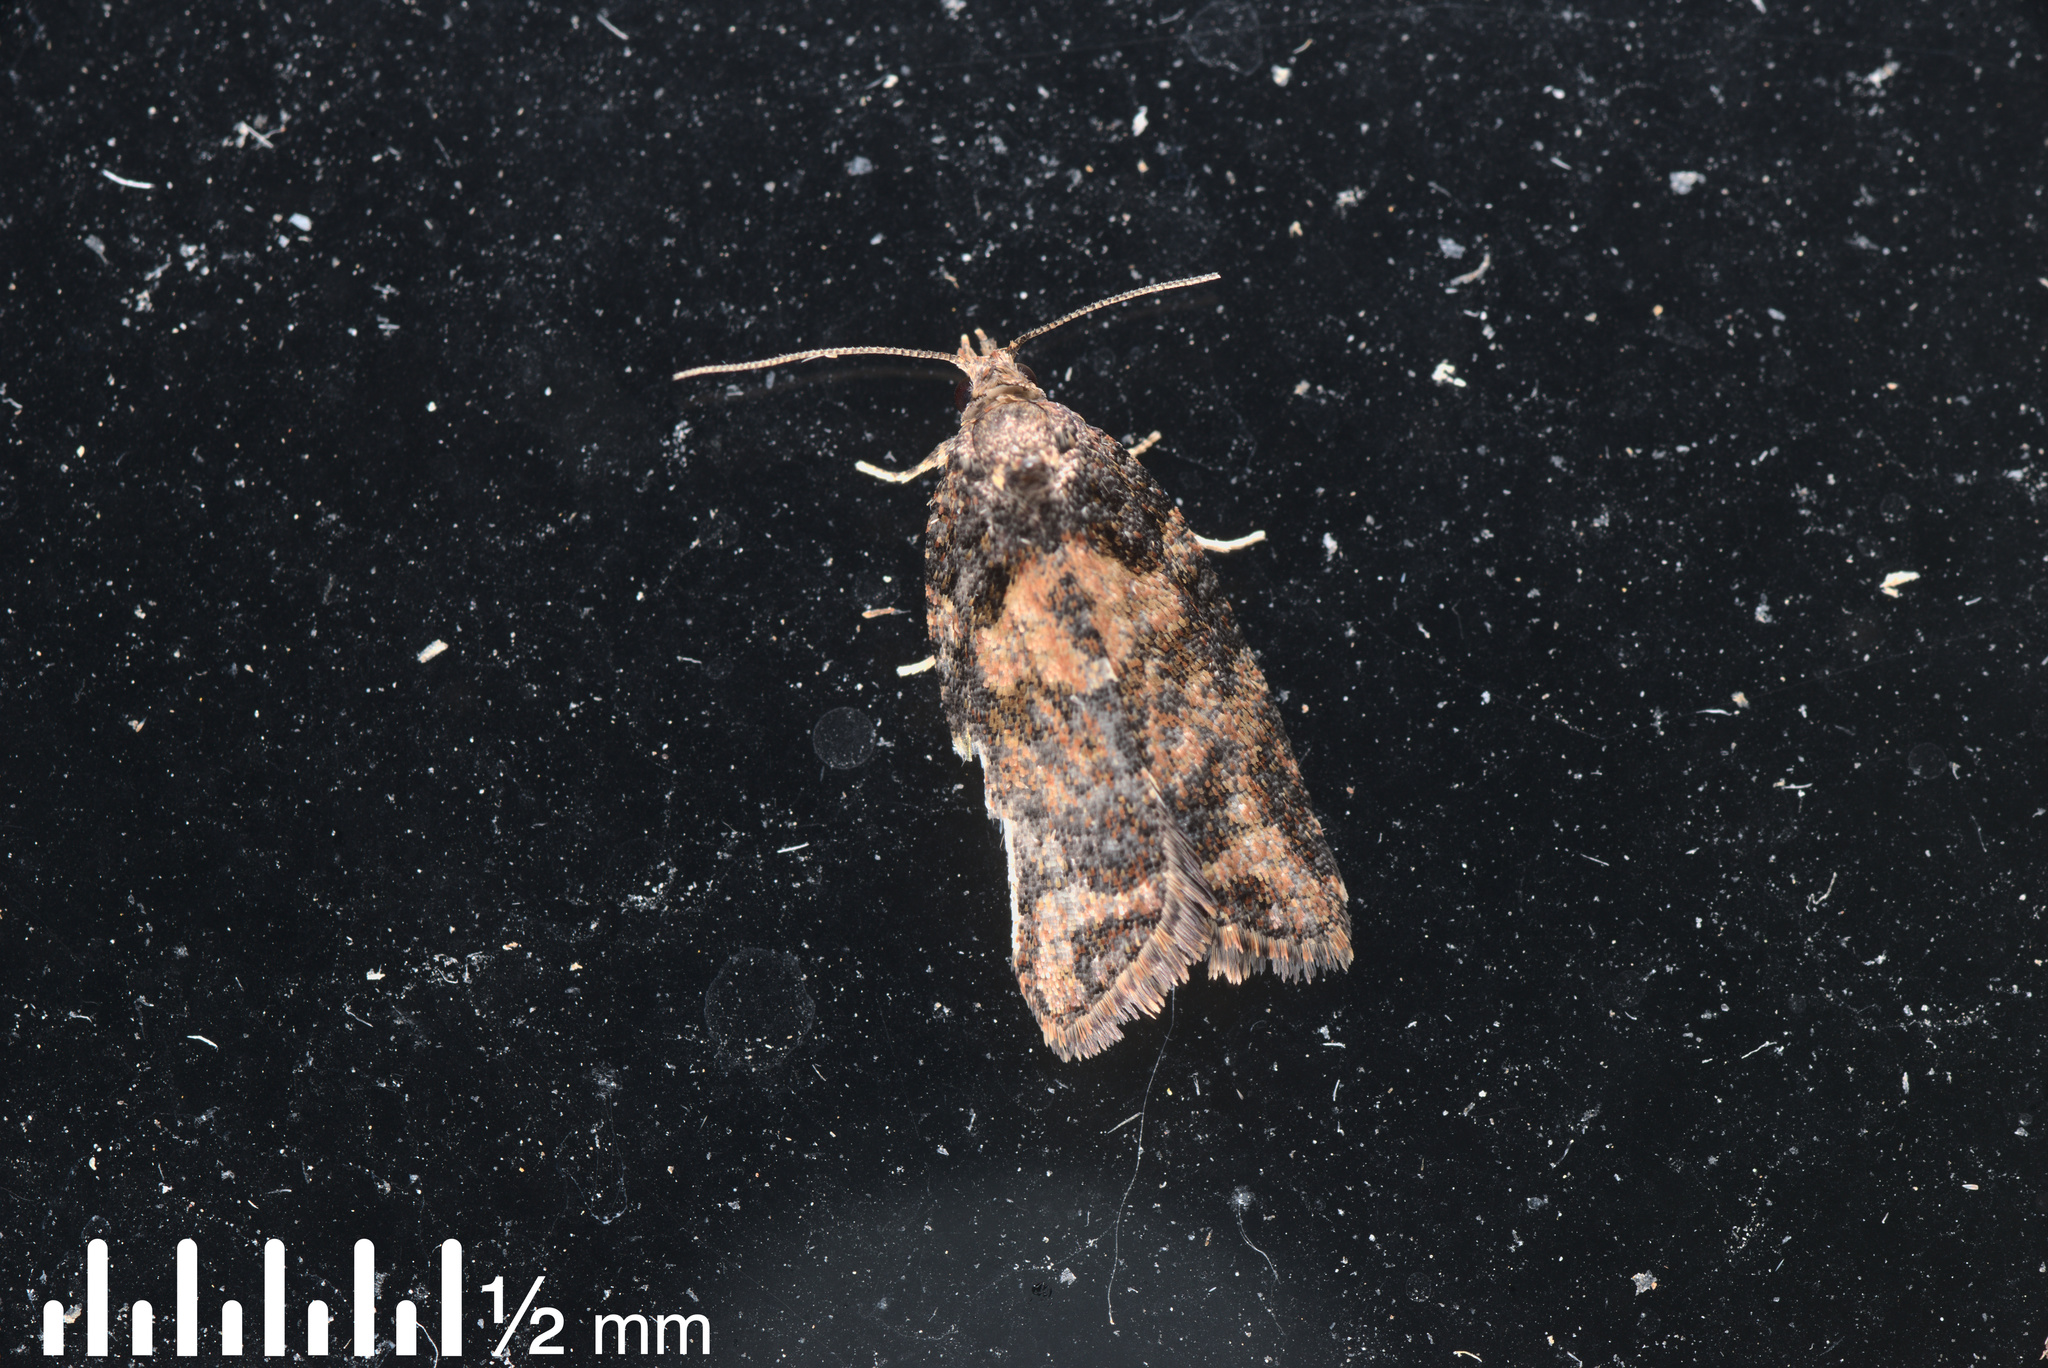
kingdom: Animalia
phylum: Arthropoda
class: Insecta
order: Lepidoptera
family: Tortricidae
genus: Capua
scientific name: Capua intractana
